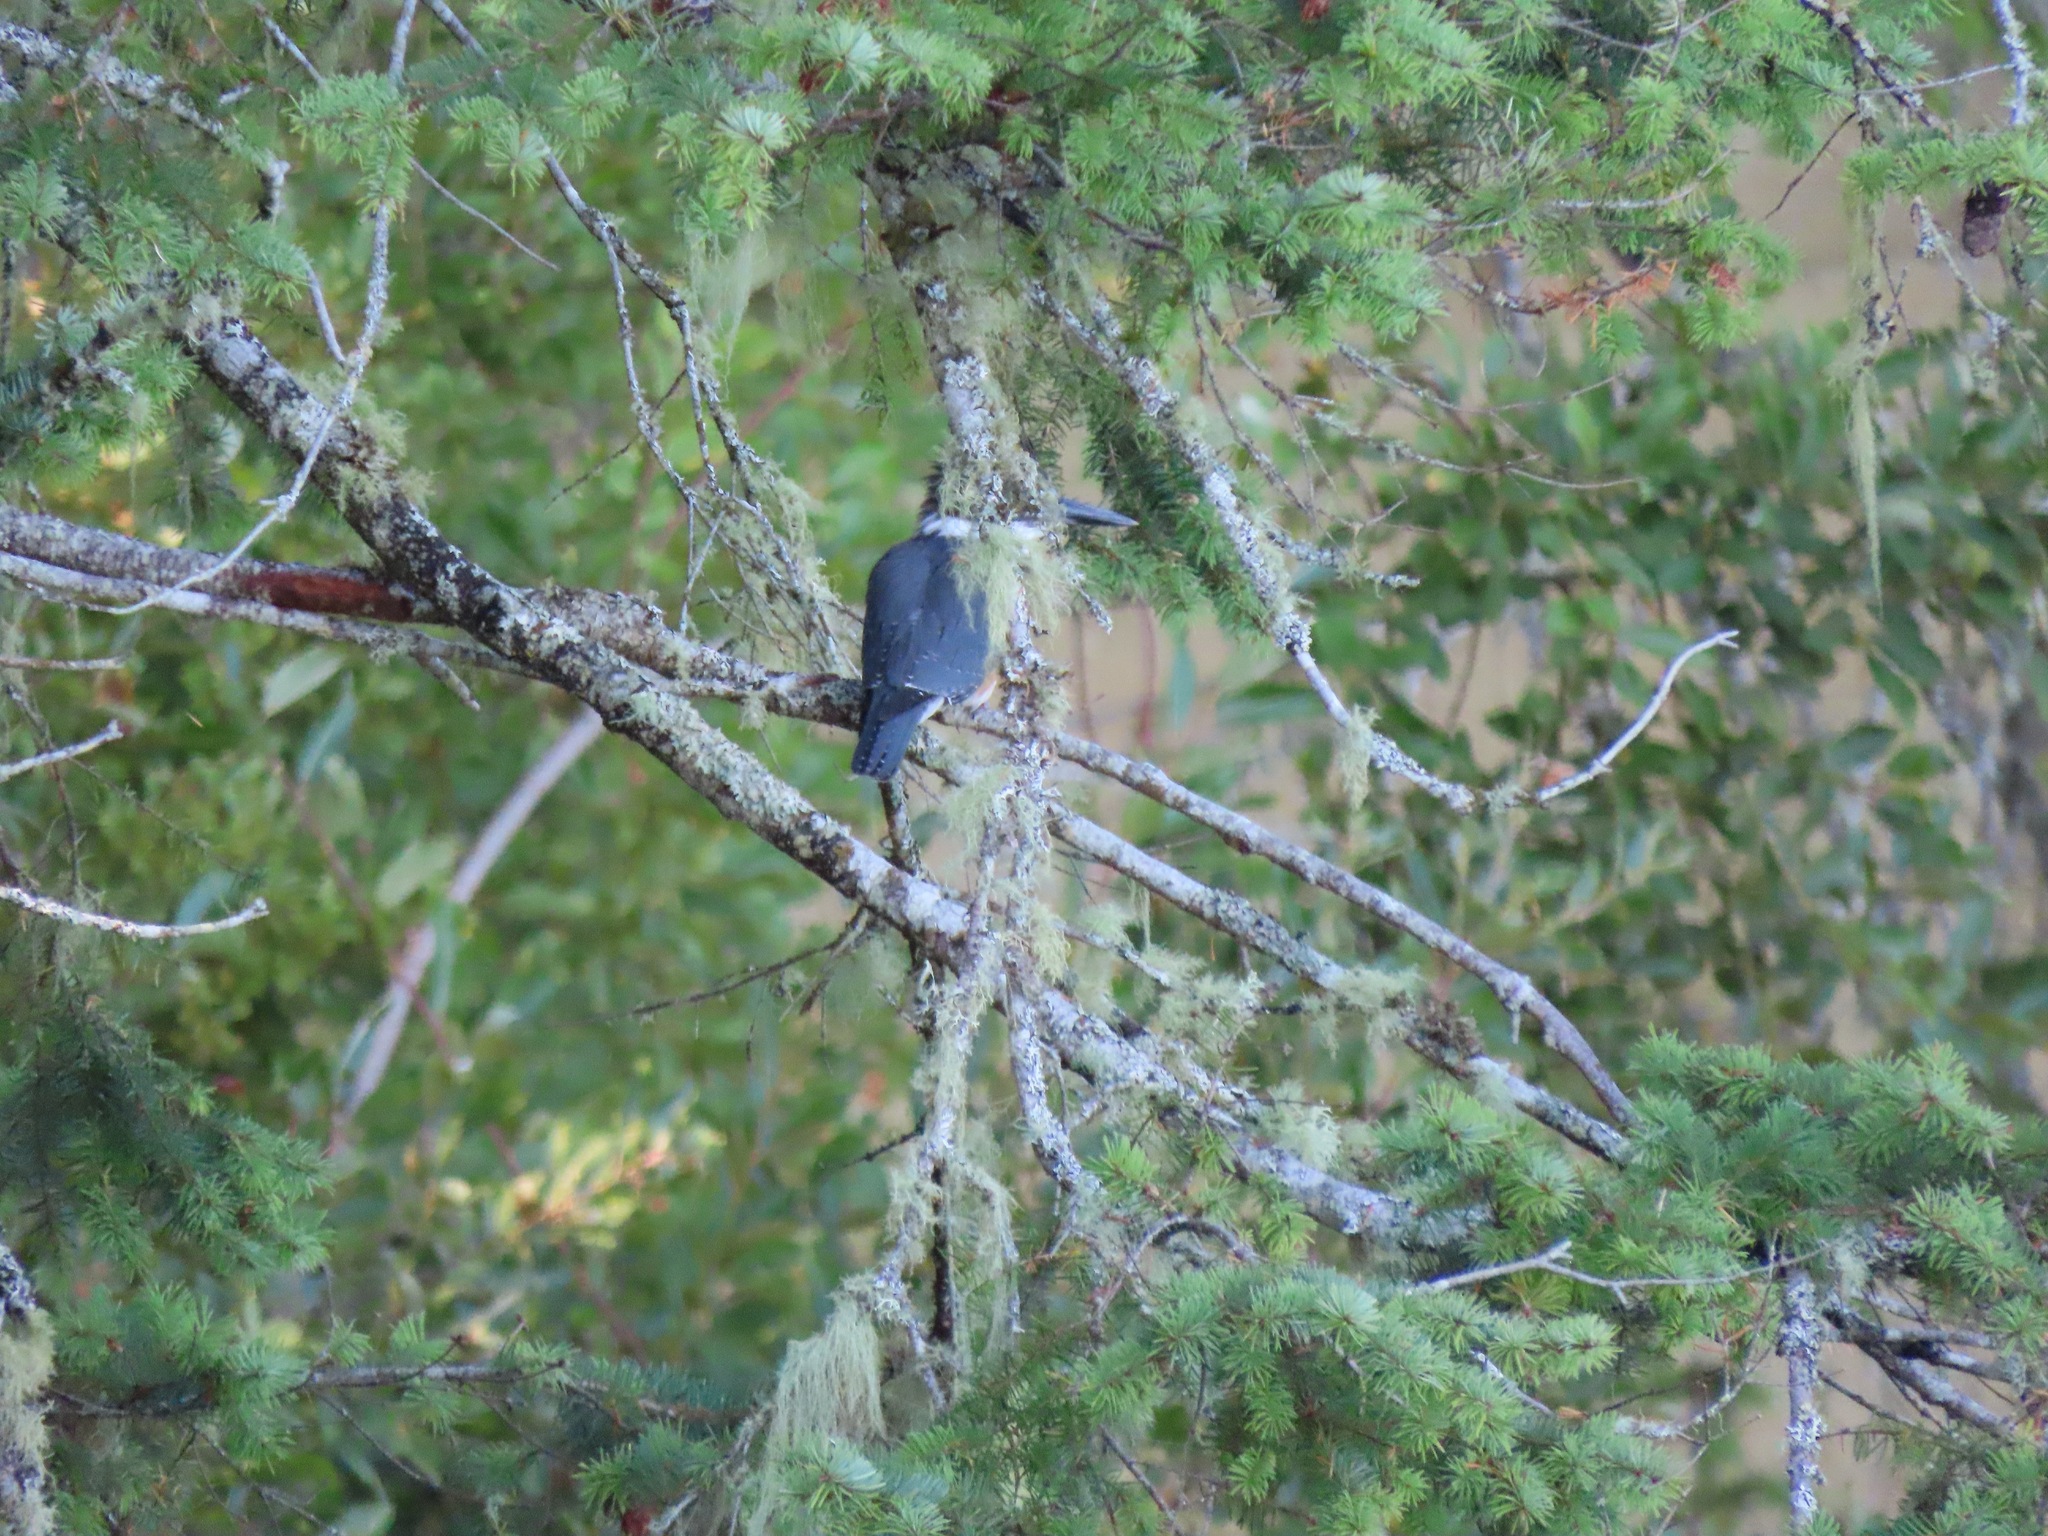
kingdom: Animalia
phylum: Chordata
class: Aves
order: Coraciiformes
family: Alcedinidae
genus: Megaceryle
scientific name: Megaceryle alcyon
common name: Belted kingfisher
